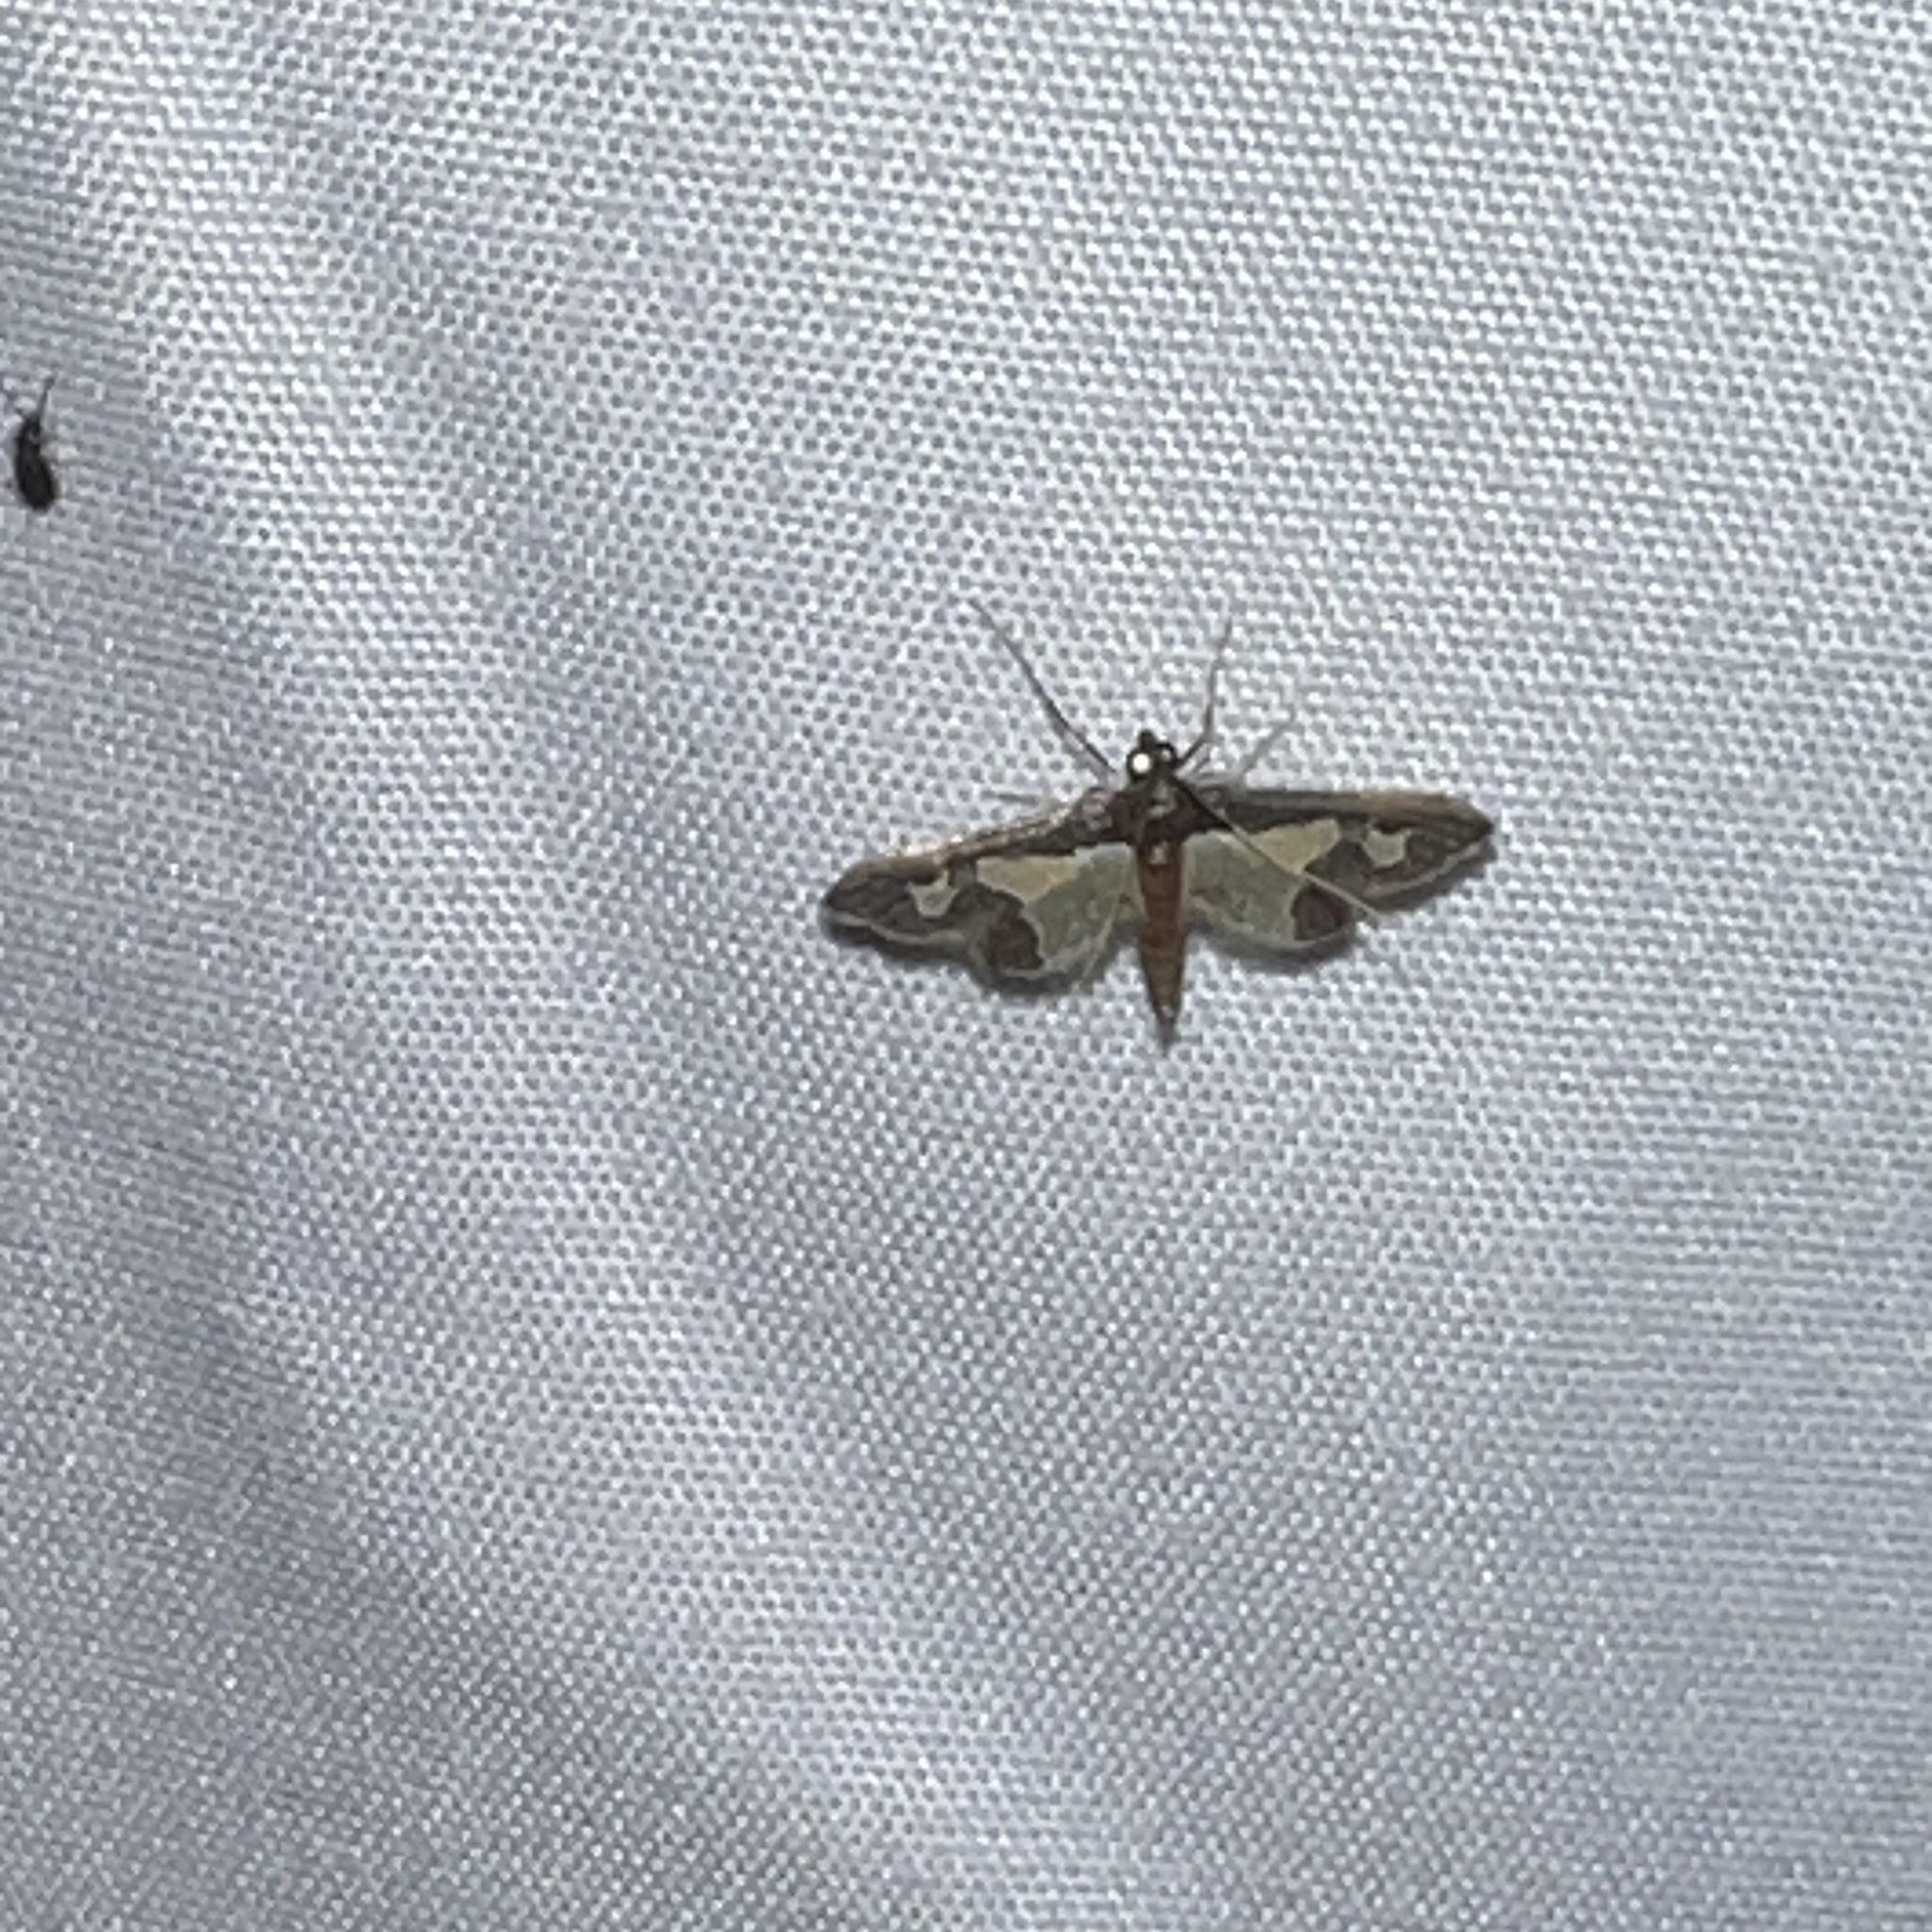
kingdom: Animalia
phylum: Arthropoda
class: Insecta
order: Lepidoptera
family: Crambidae
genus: Gonocausta
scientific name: Gonocausta sabinalis
